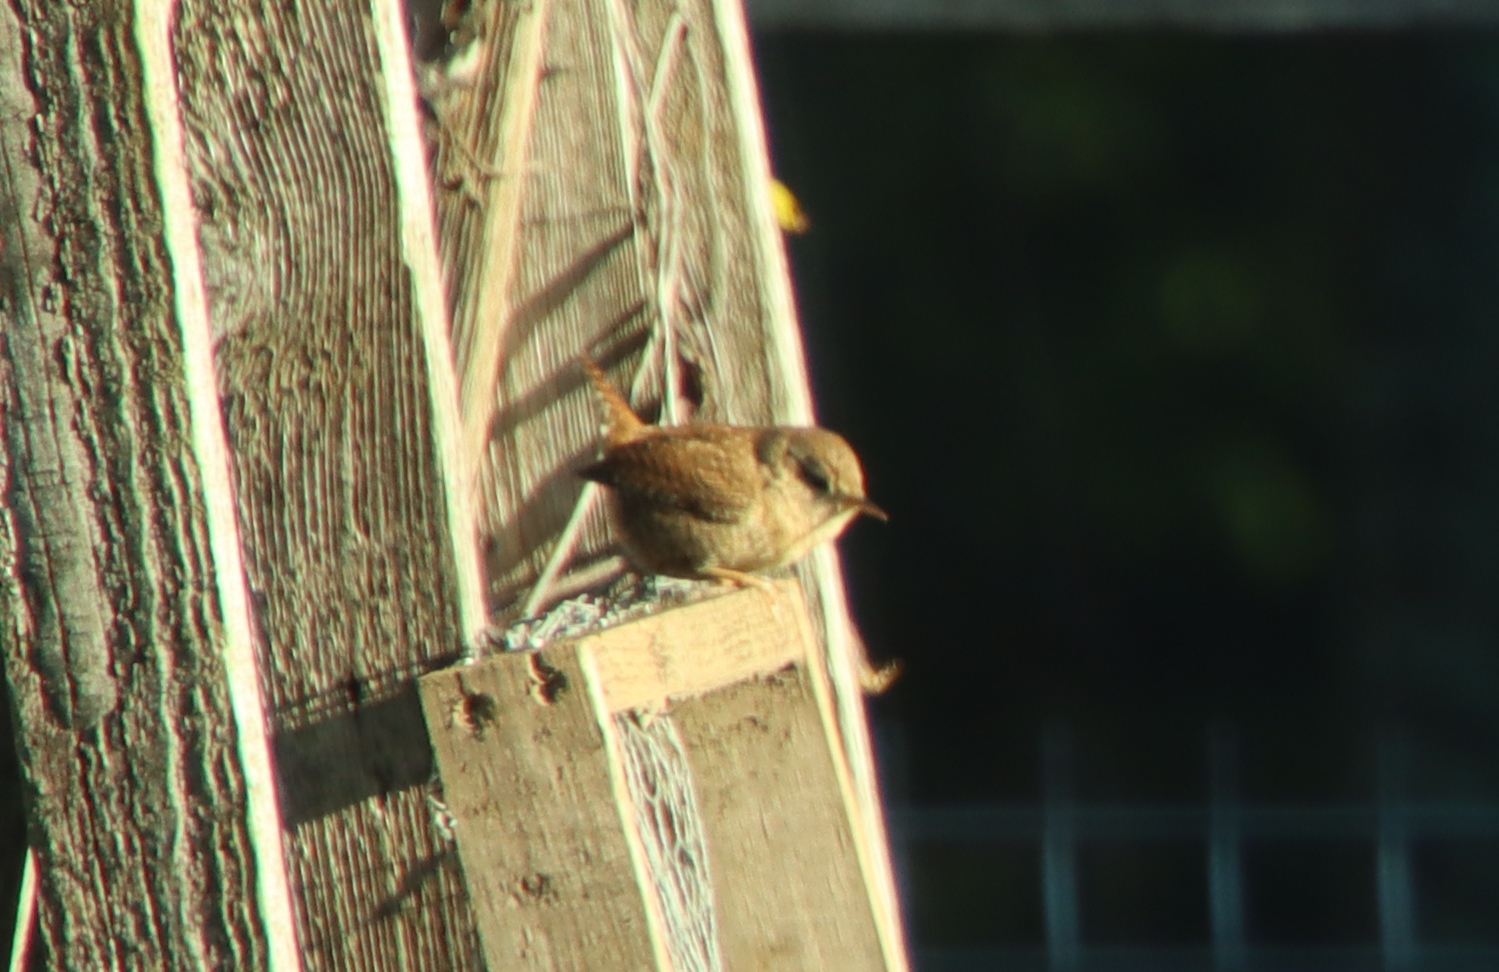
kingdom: Animalia
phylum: Chordata
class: Aves
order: Passeriformes
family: Troglodytidae
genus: Troglodytes
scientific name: Troglodytes troglodytes
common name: Eurasian wren
